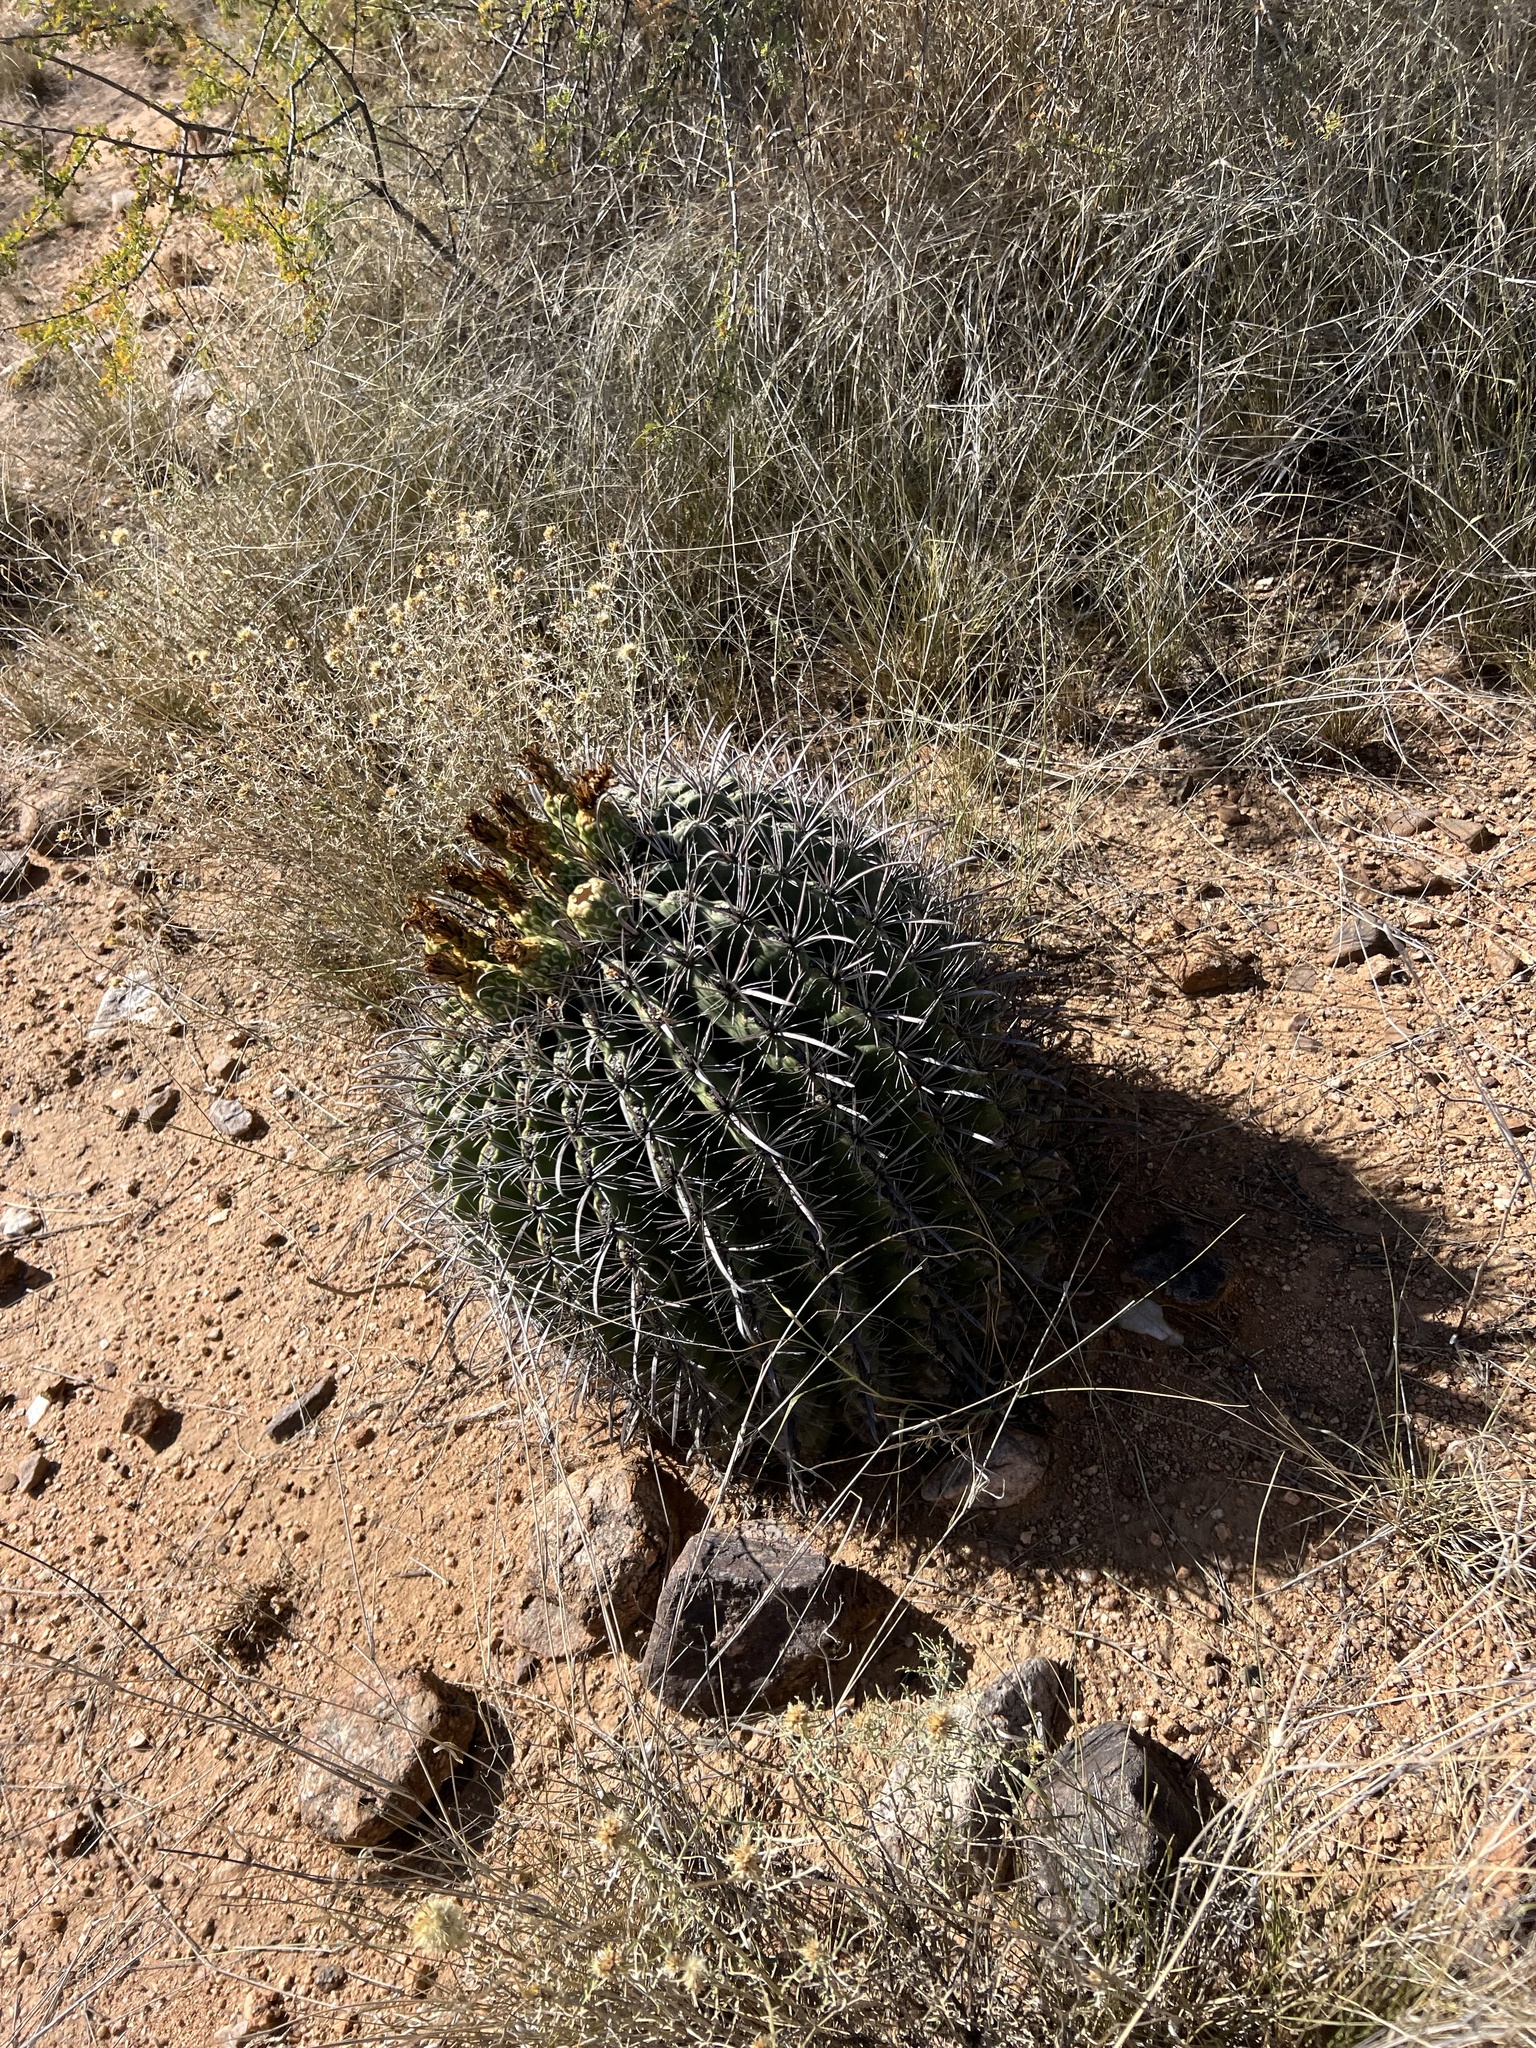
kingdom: Plantae
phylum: Tracheophyta
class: Magnoliopsida
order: Caryophyllales
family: Cactaceae
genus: Ferocactus
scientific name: Ferocactus wislizeni
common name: Candy barrel cactus
